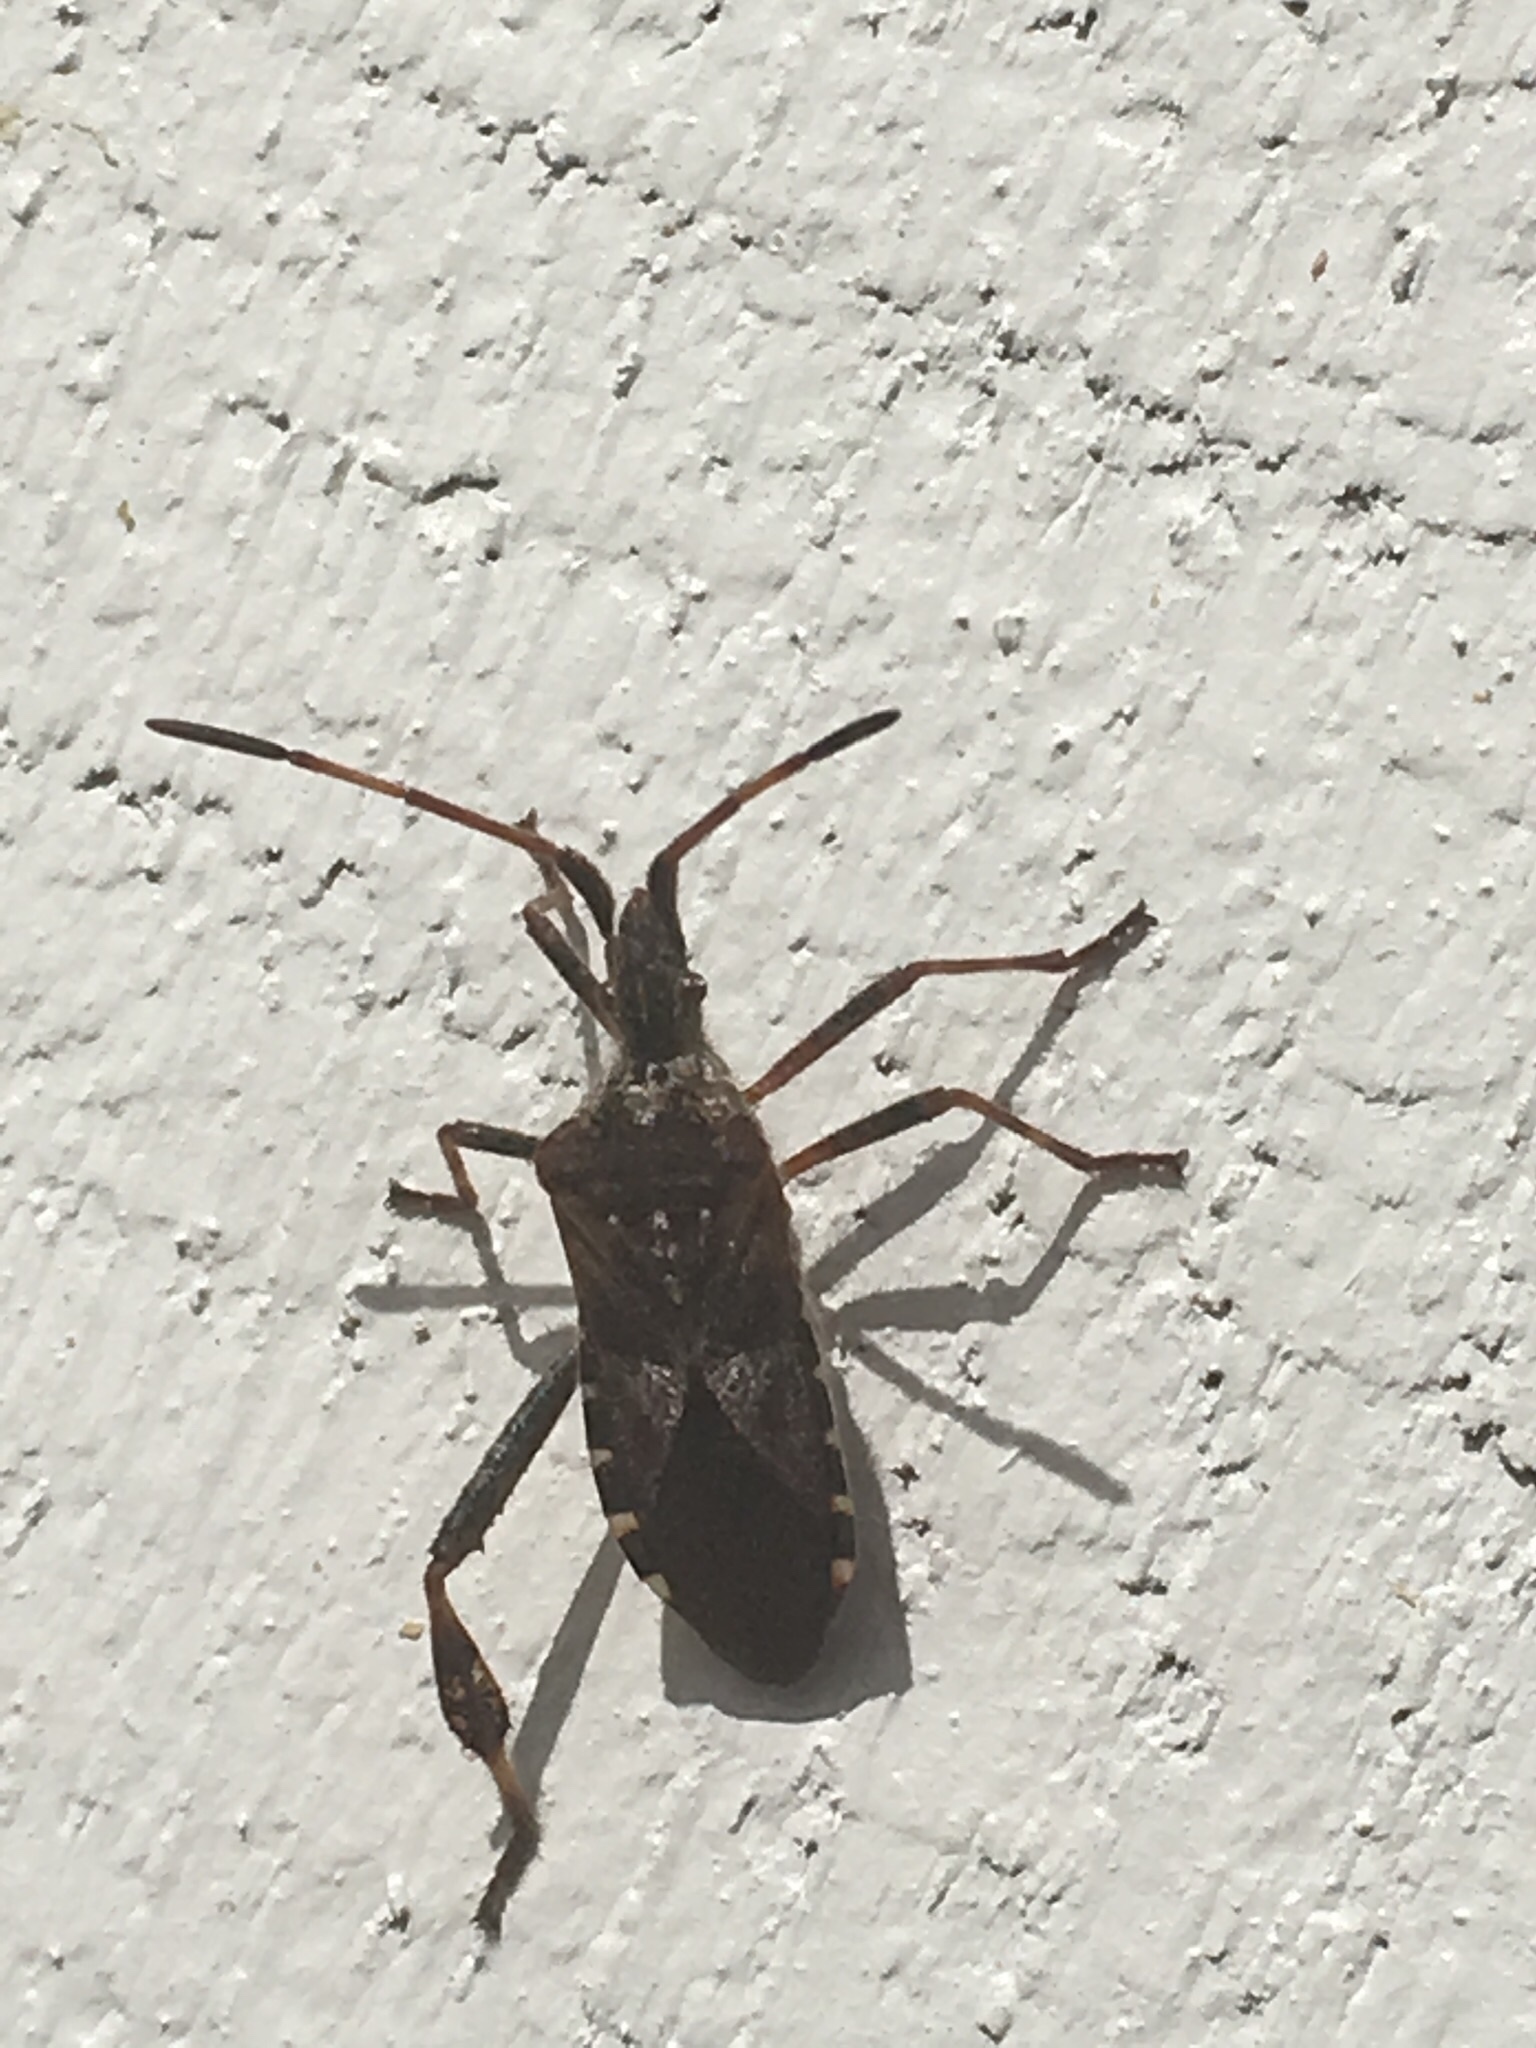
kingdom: Animalia
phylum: Arthropoda
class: Insecta
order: Hemiptera
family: Coreidae
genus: Leptoglossus
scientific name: Leptoglossus occidentalis
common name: Western conifer-seed bug
